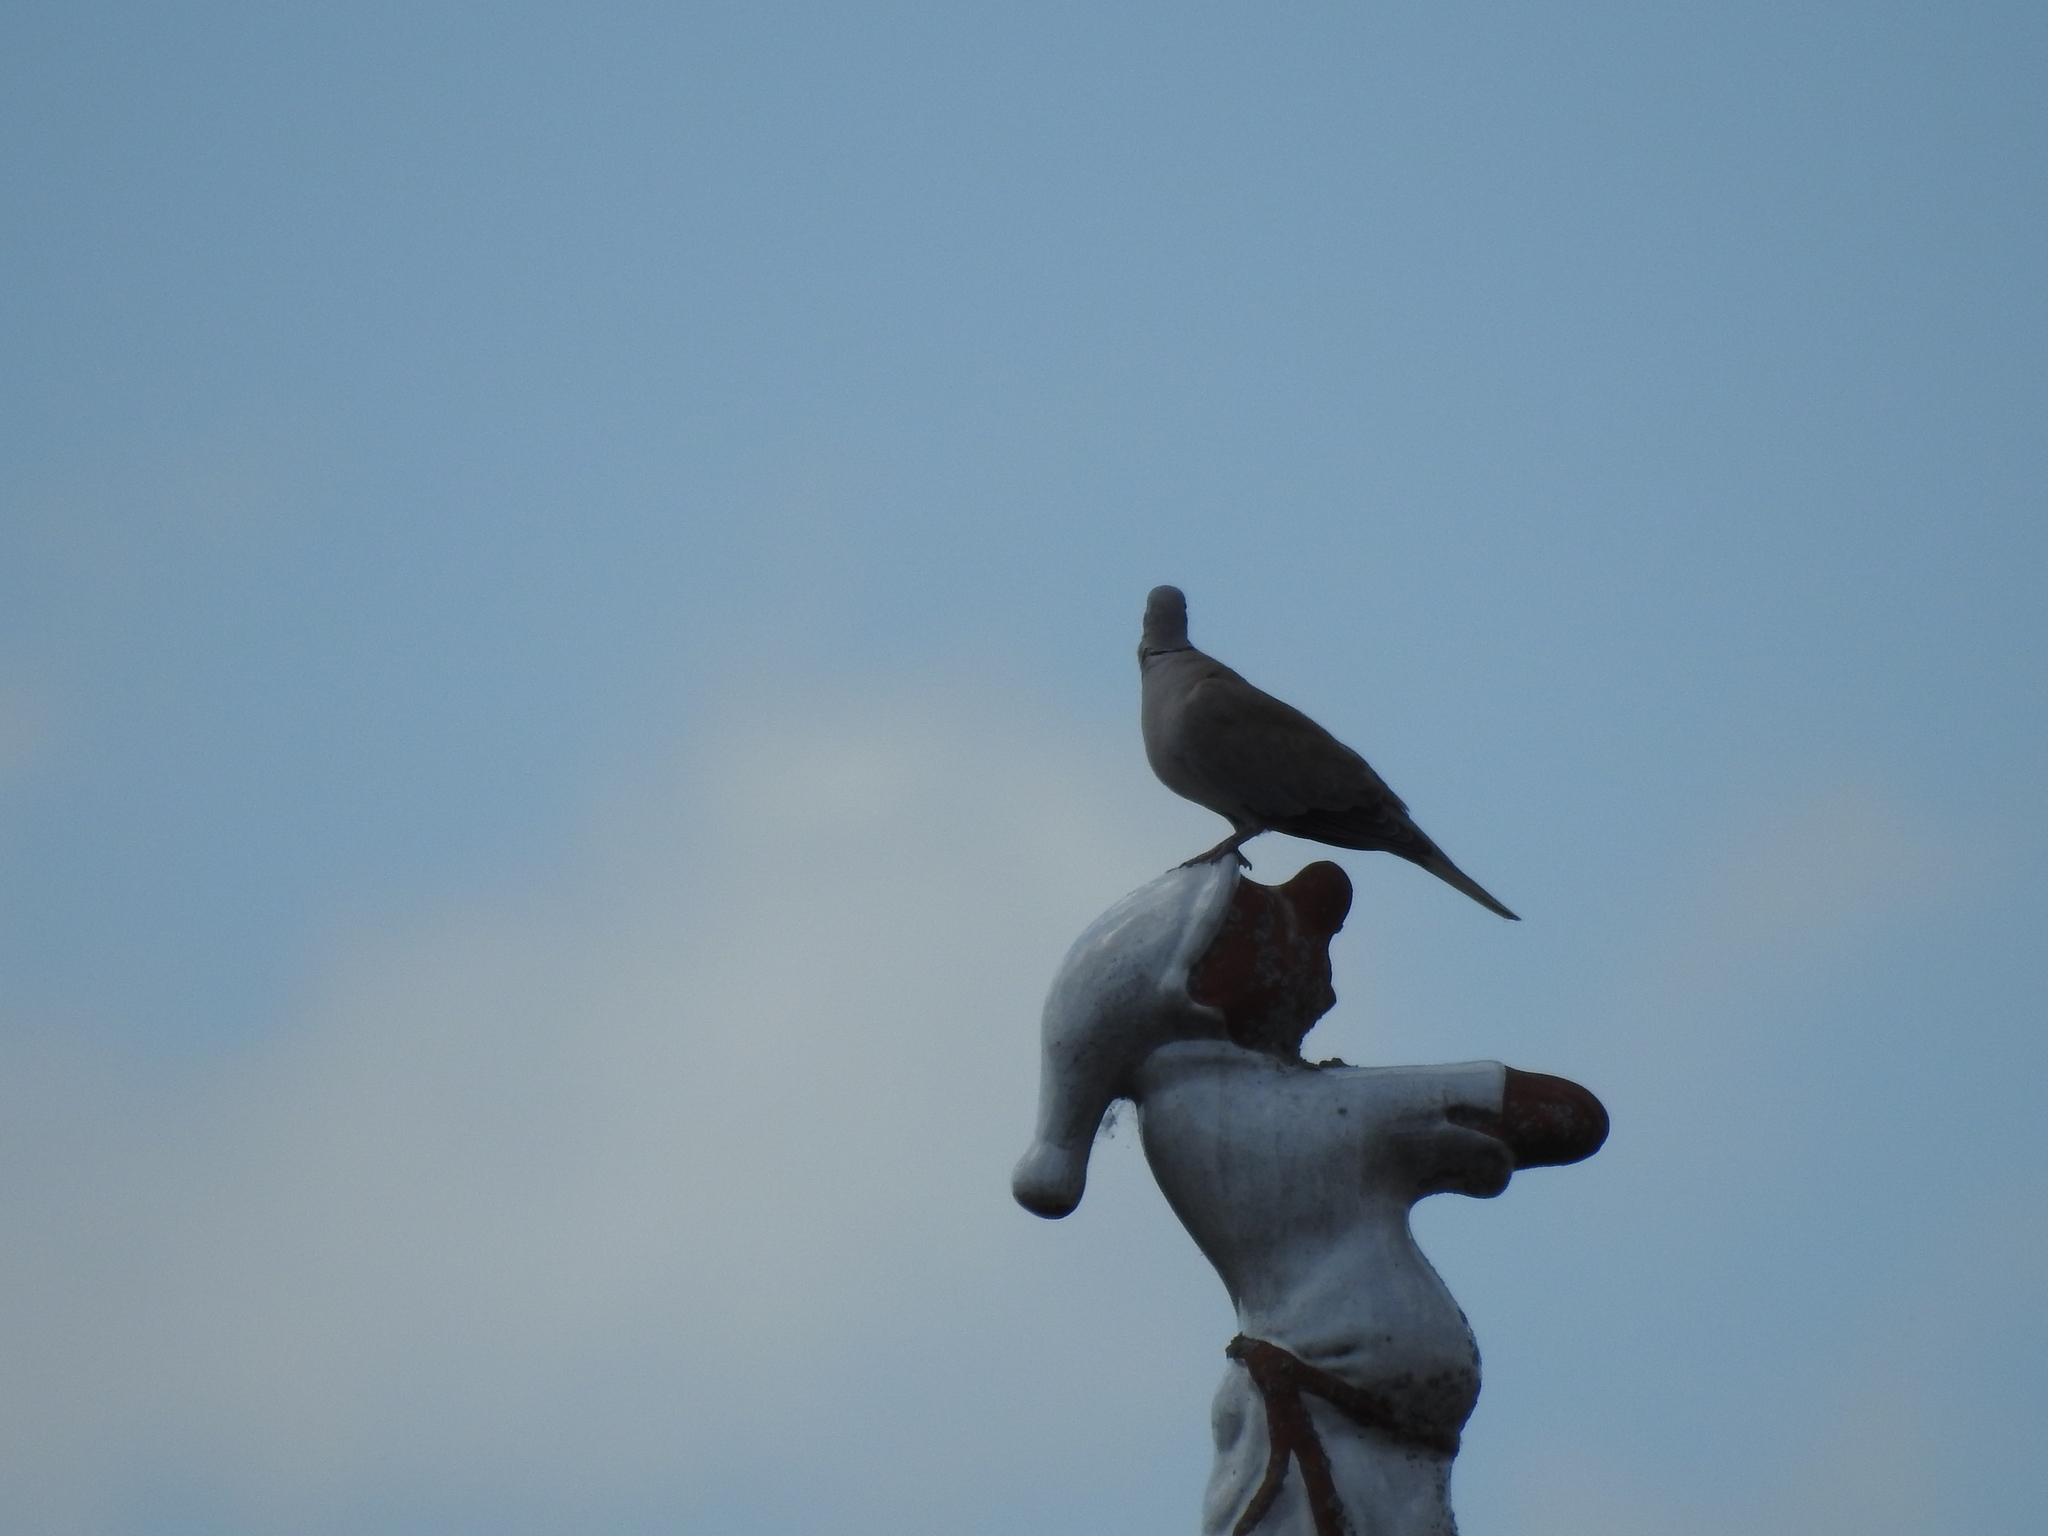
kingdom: Animalia
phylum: Chordata
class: Aves
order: Columbiformes
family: Columbidae
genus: Streptopelia
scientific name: Streptopelia decaocto
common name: Eurasian collared dove
